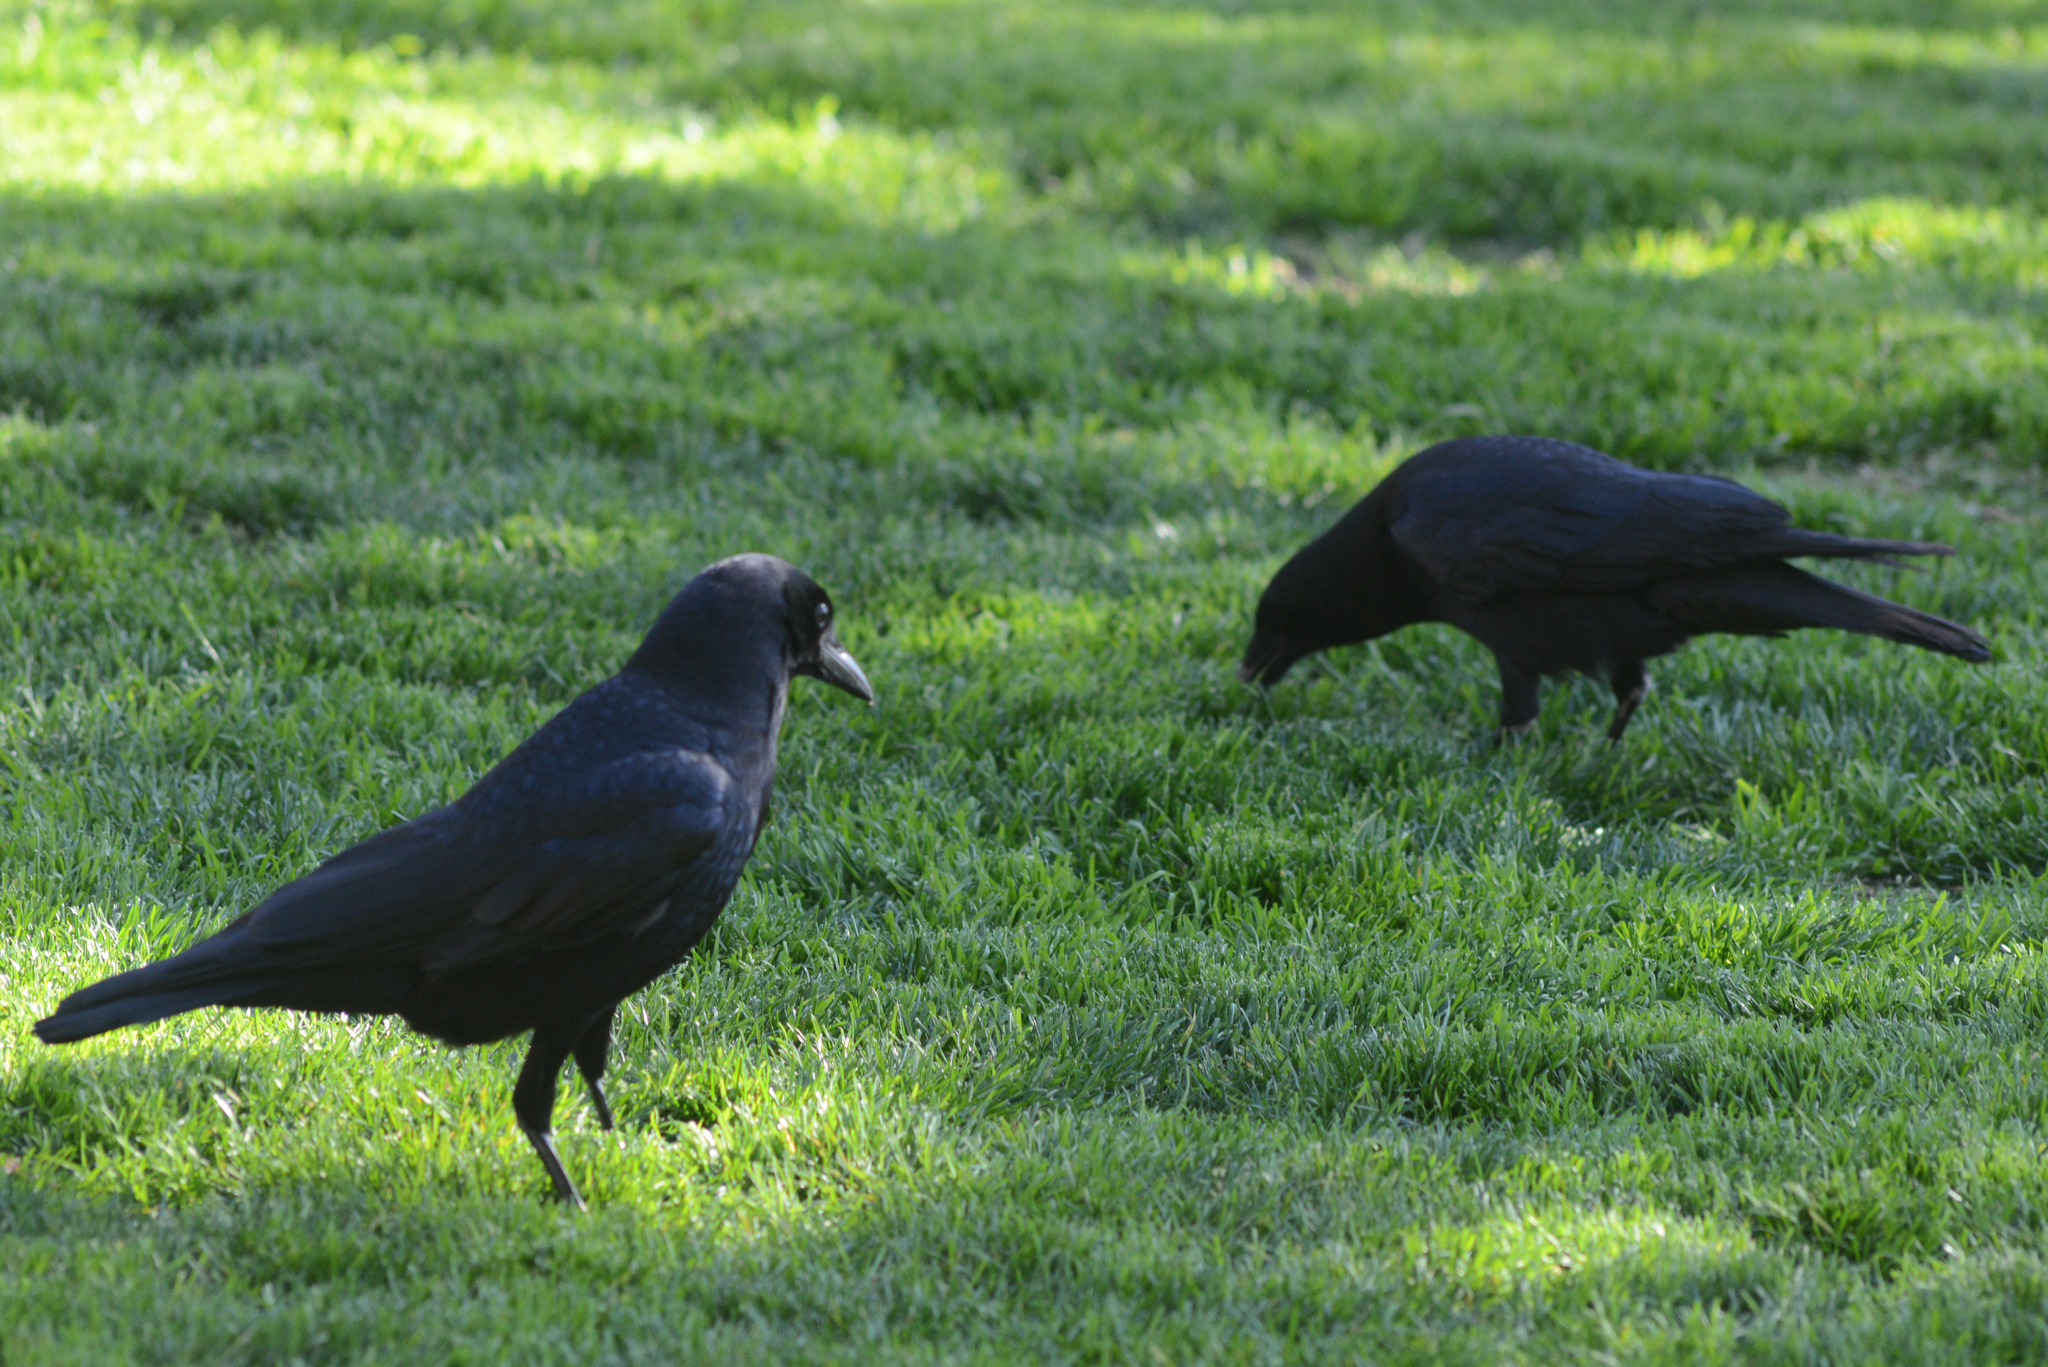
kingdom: Animalia
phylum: Chordata
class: Aves
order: Passeriformes
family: Corvidae
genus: Corvus
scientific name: Corvus brachyrhynchos
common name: American crow
